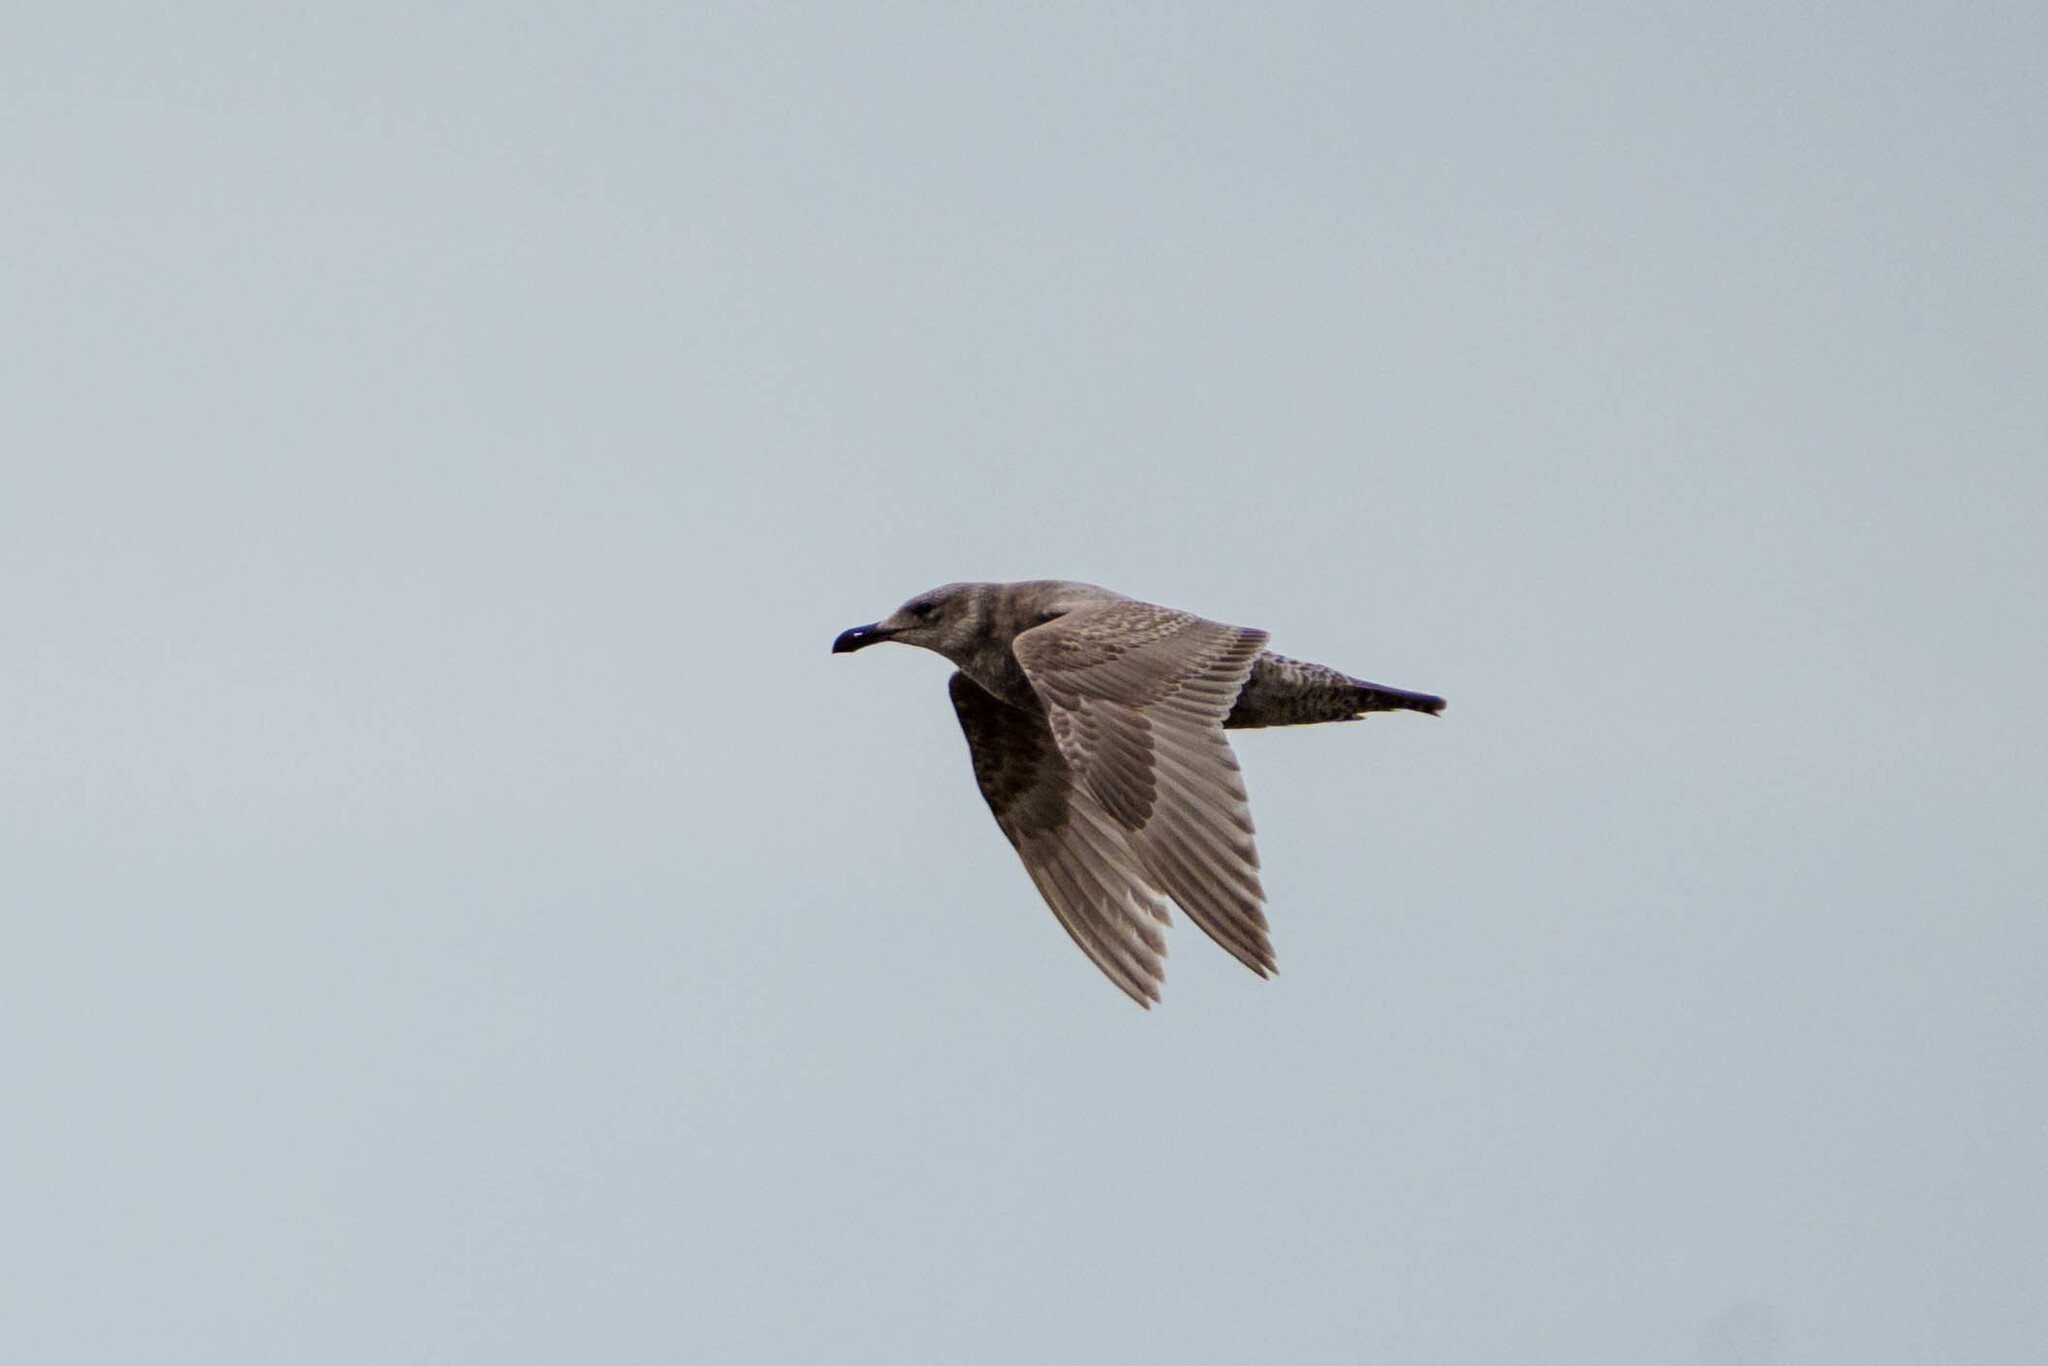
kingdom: Animalia
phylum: Chordata
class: Aves
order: Charadriiformes
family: Laridae
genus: Larus
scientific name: Larus glaucescens
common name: Glaucous-winged gull
